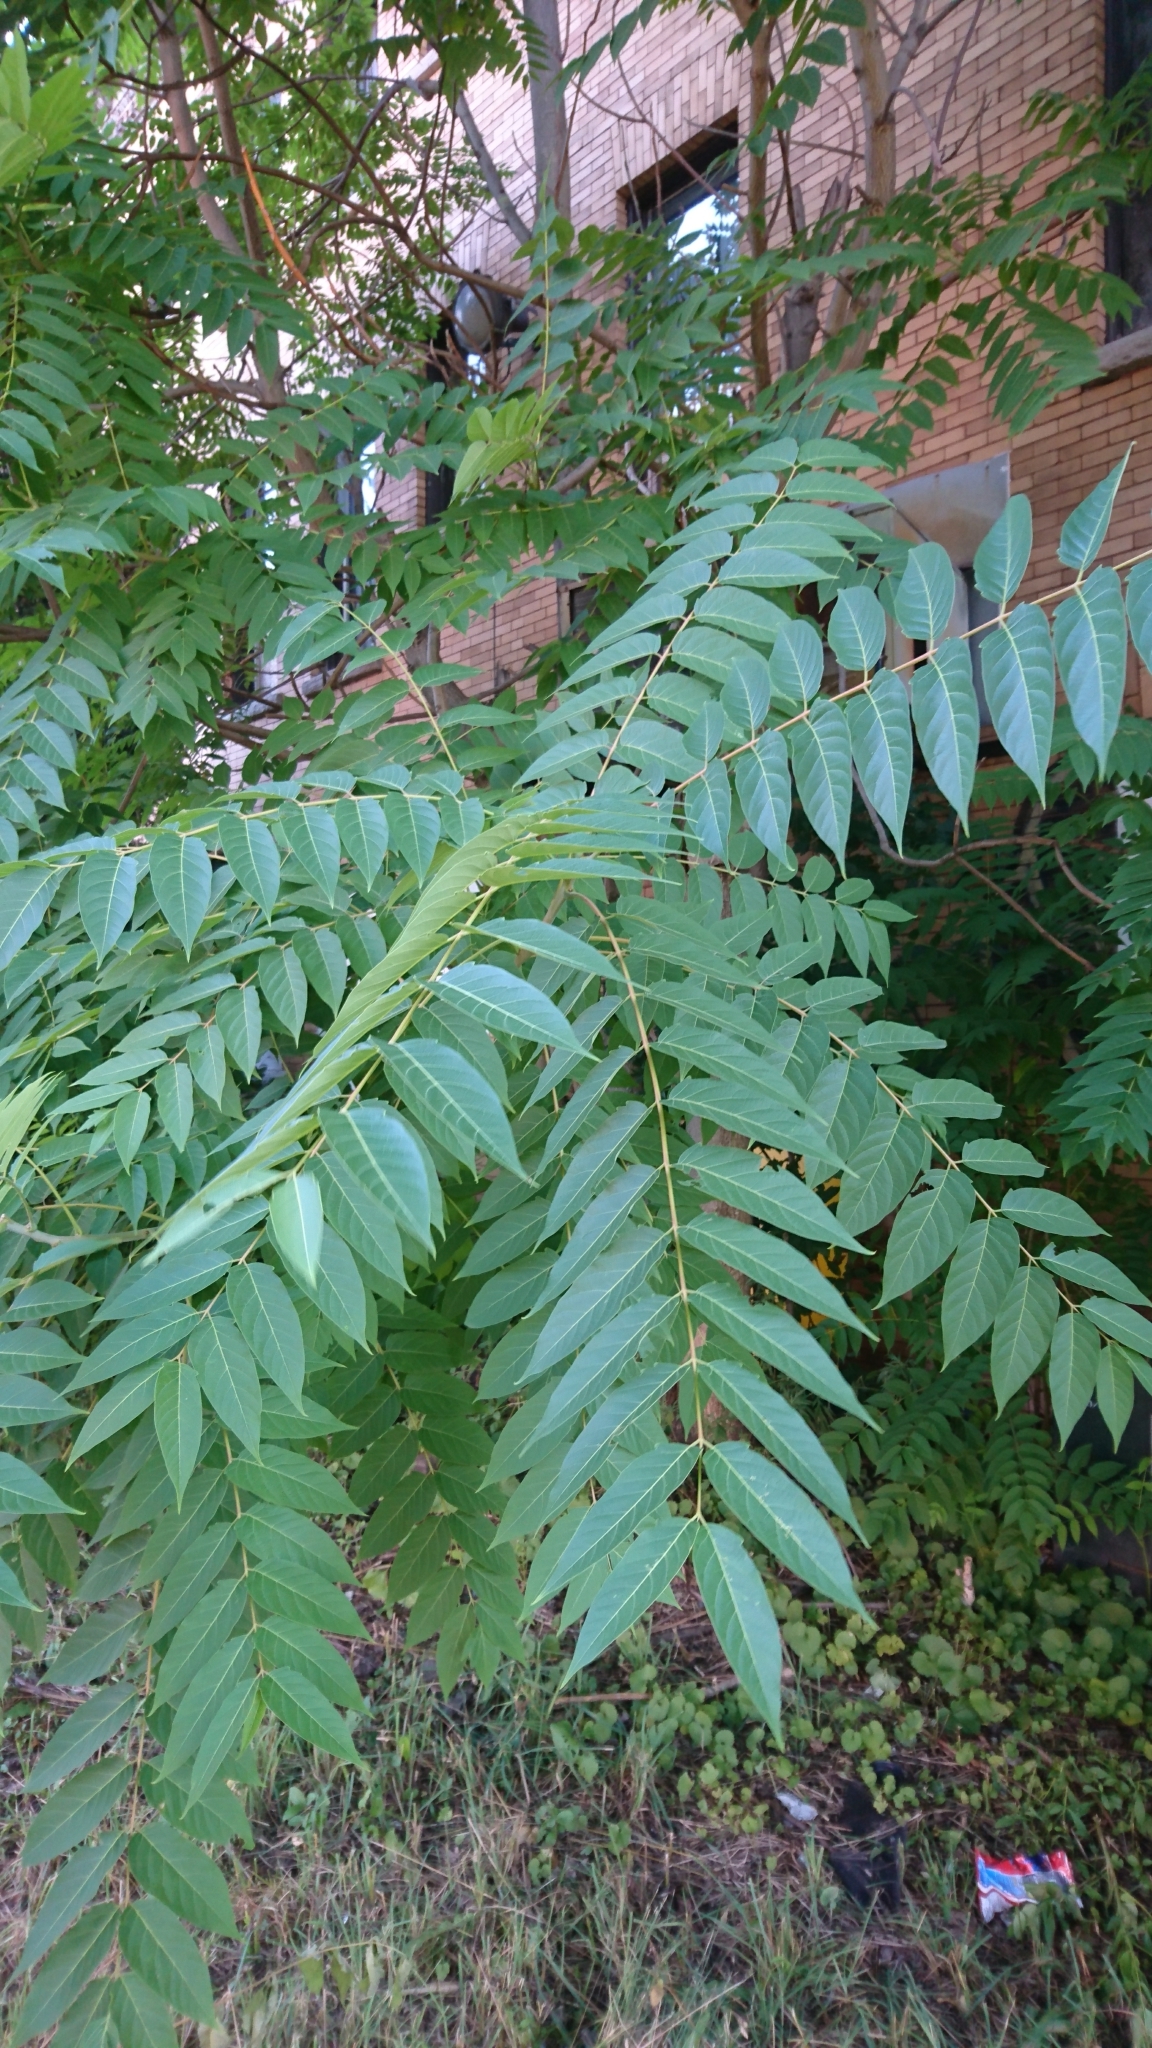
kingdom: Plantae
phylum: Tracheophyta
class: Magnoliopsida
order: Sapindales
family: Simaroubaceae
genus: Ailanthus
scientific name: Ailanthus altissima
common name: Tree-of-heaven
